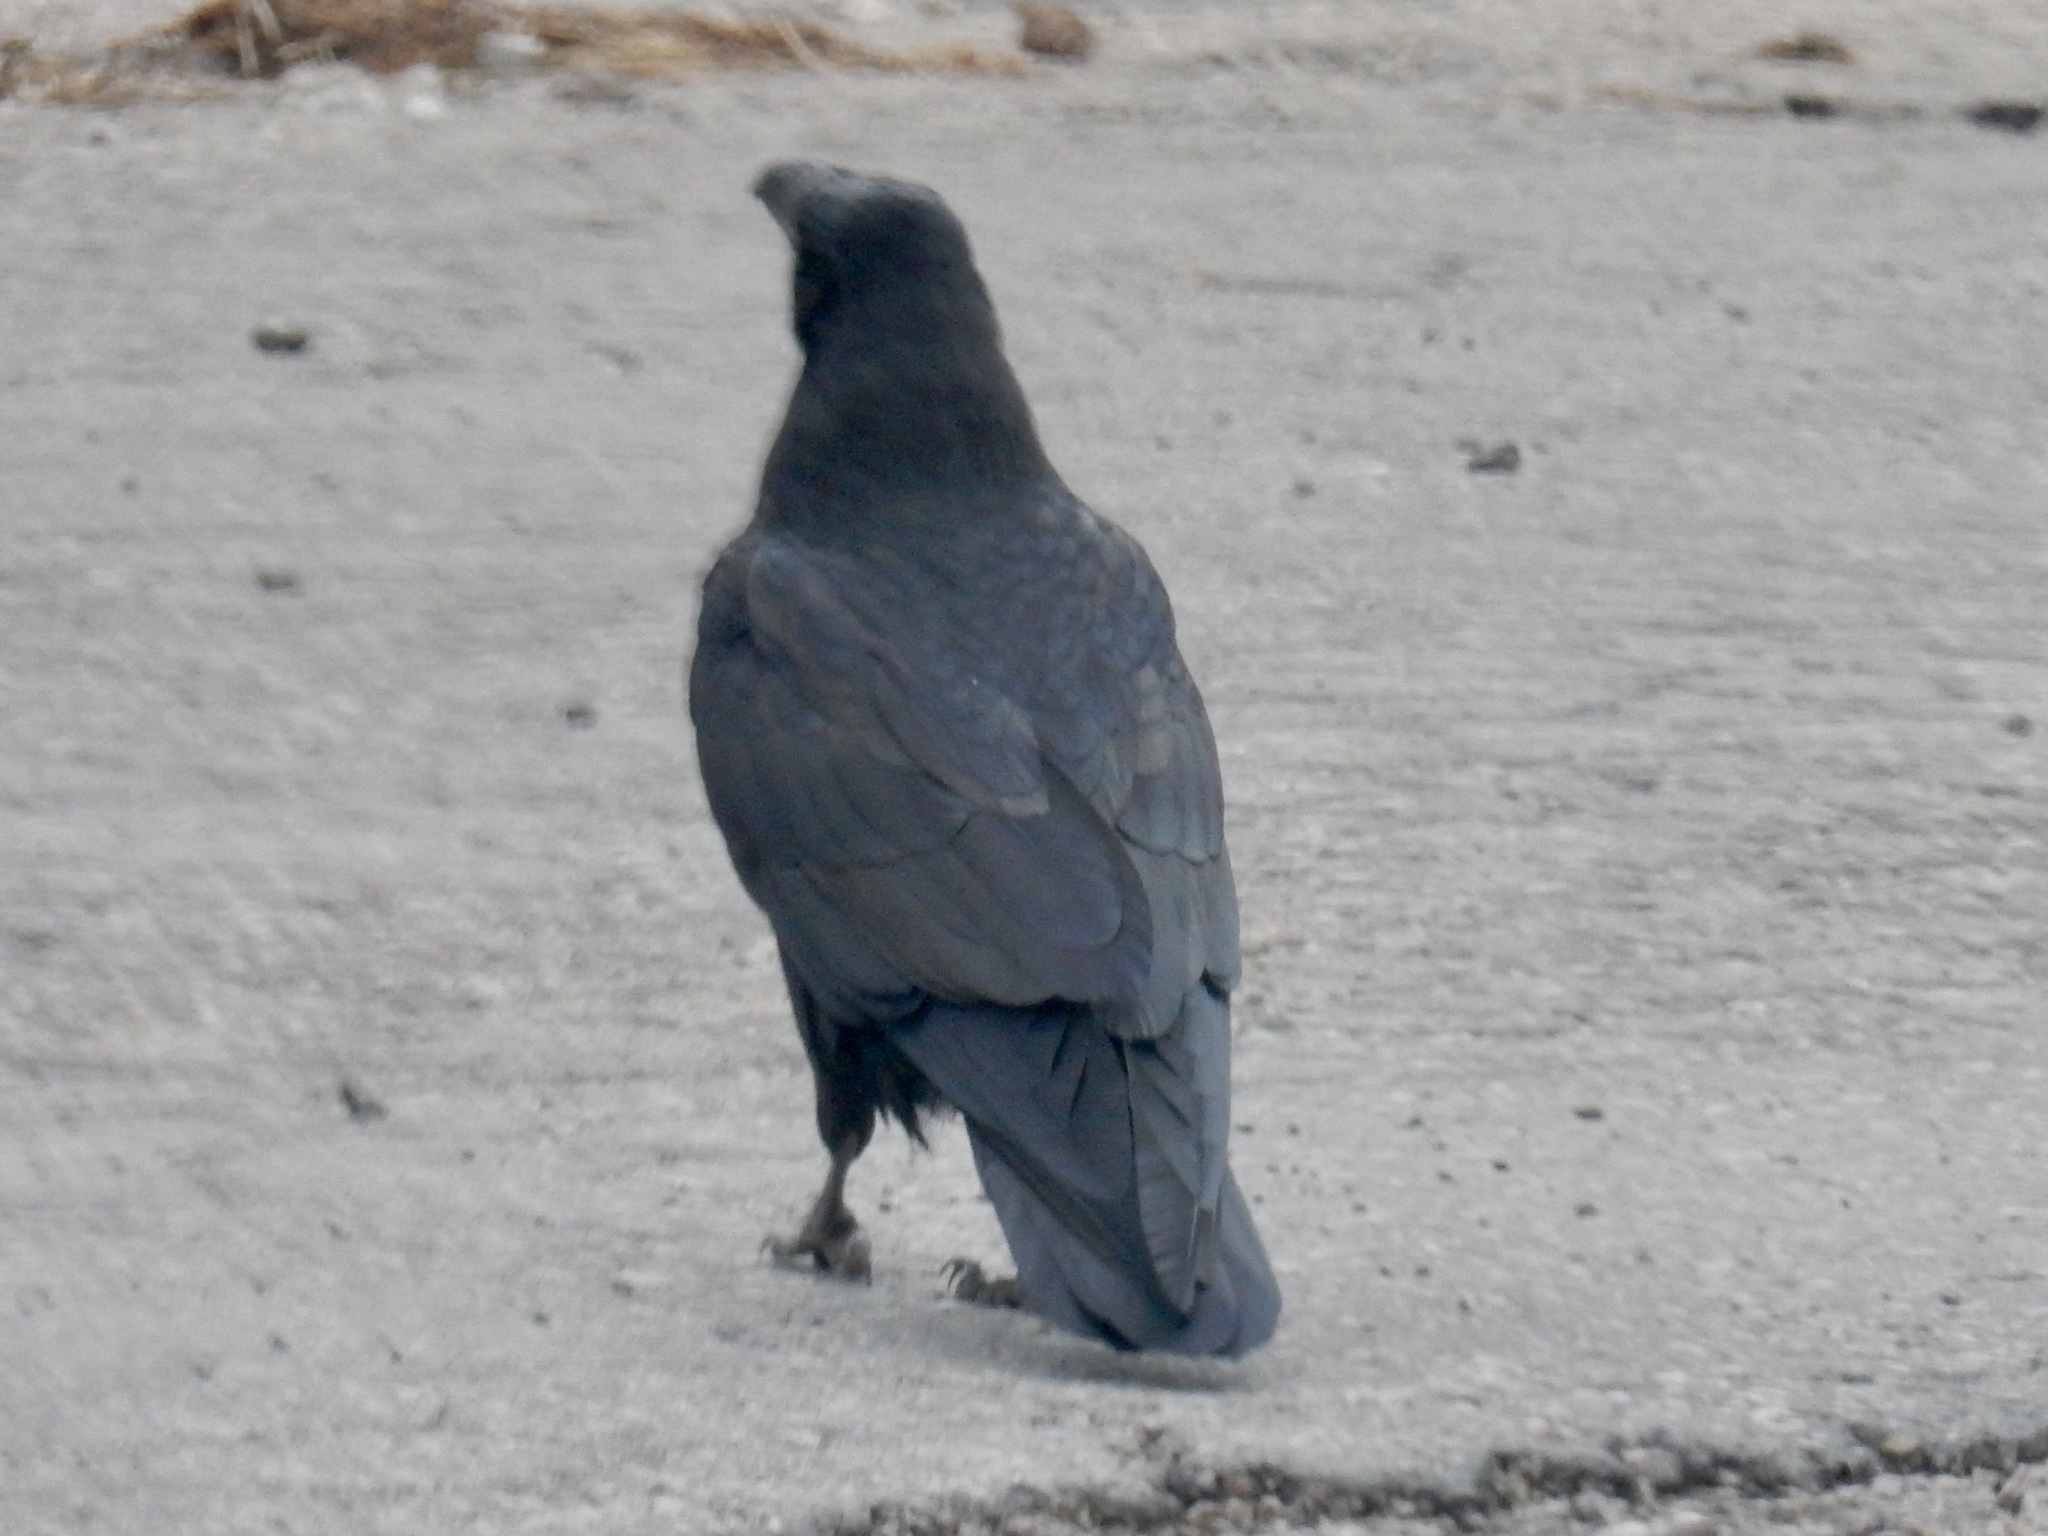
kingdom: Animalia
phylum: Chordata
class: Aves
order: Passeriformes
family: Corvidae
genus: Corvus
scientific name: Corvus corax
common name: Common raven
